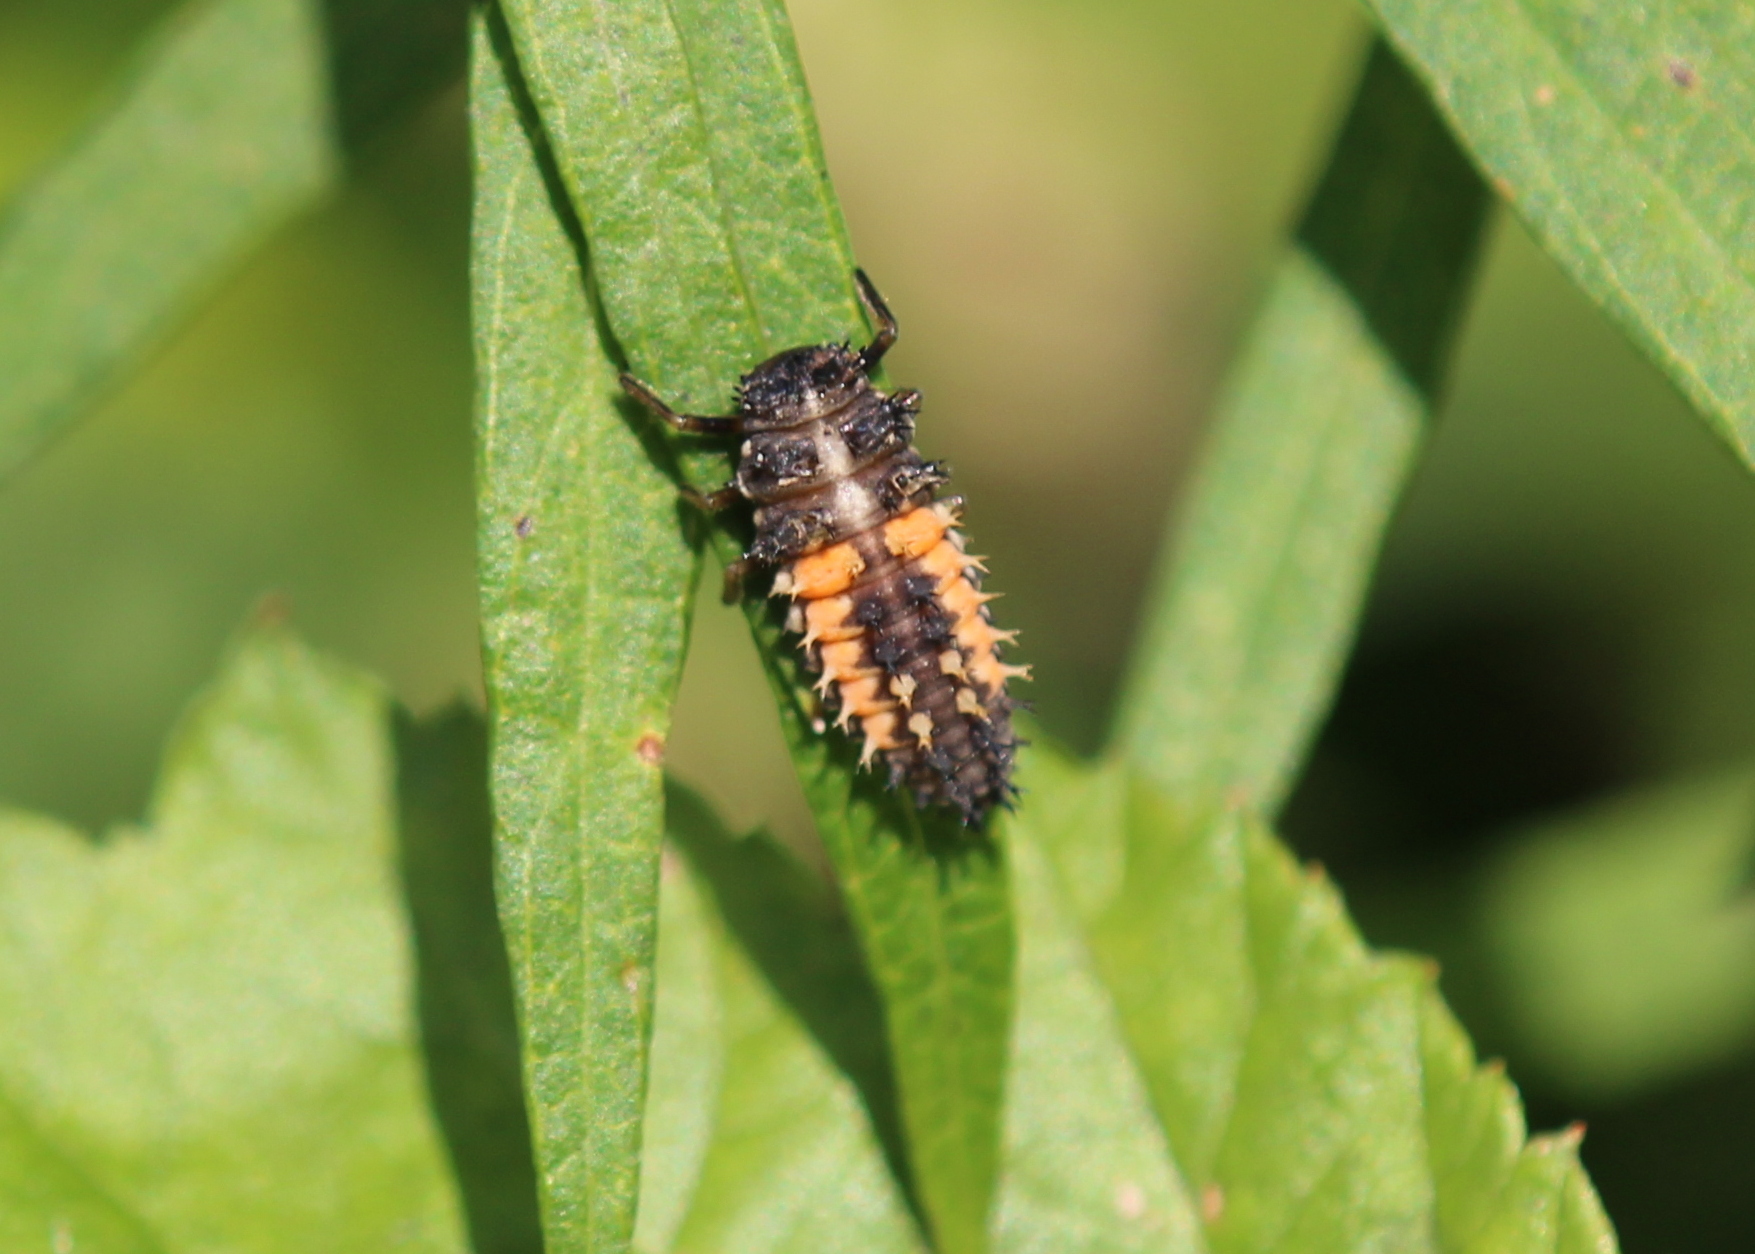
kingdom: Animalia
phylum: Arthropoda
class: Insecta
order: Coleoptera
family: Coccinellidae
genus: Harmonia
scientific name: Harmonia axyridis
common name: Harlequin ladybird
